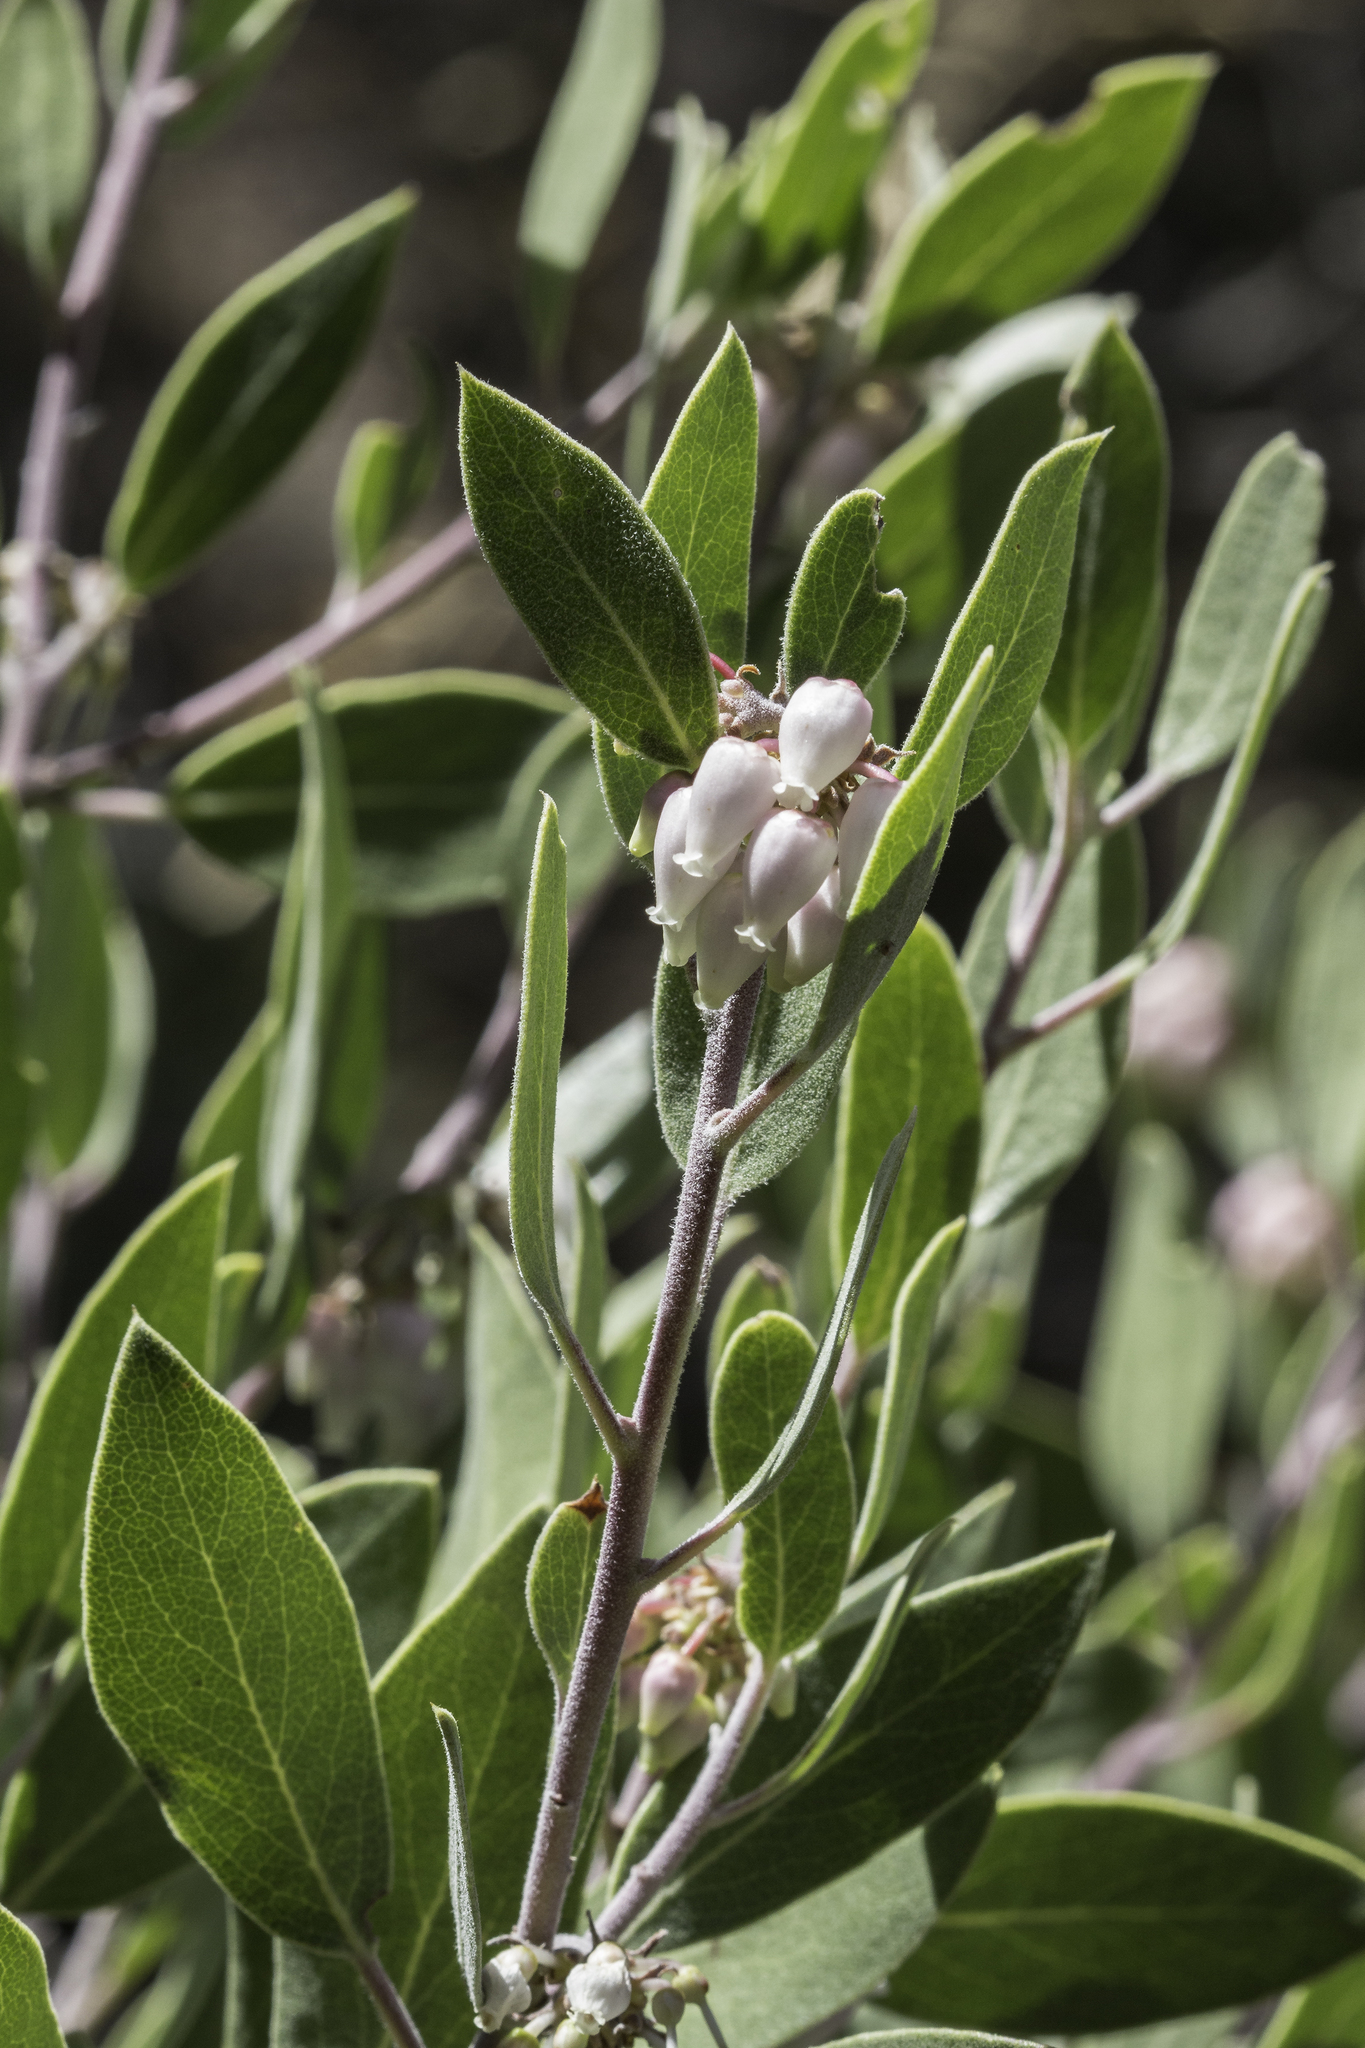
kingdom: Plantae
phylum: Tracheophyta
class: Magnoliopsida
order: Ericales
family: Ericaceae
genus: Arctostaphylos
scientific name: Arctostaphylos pungens
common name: Mexican manzanita
